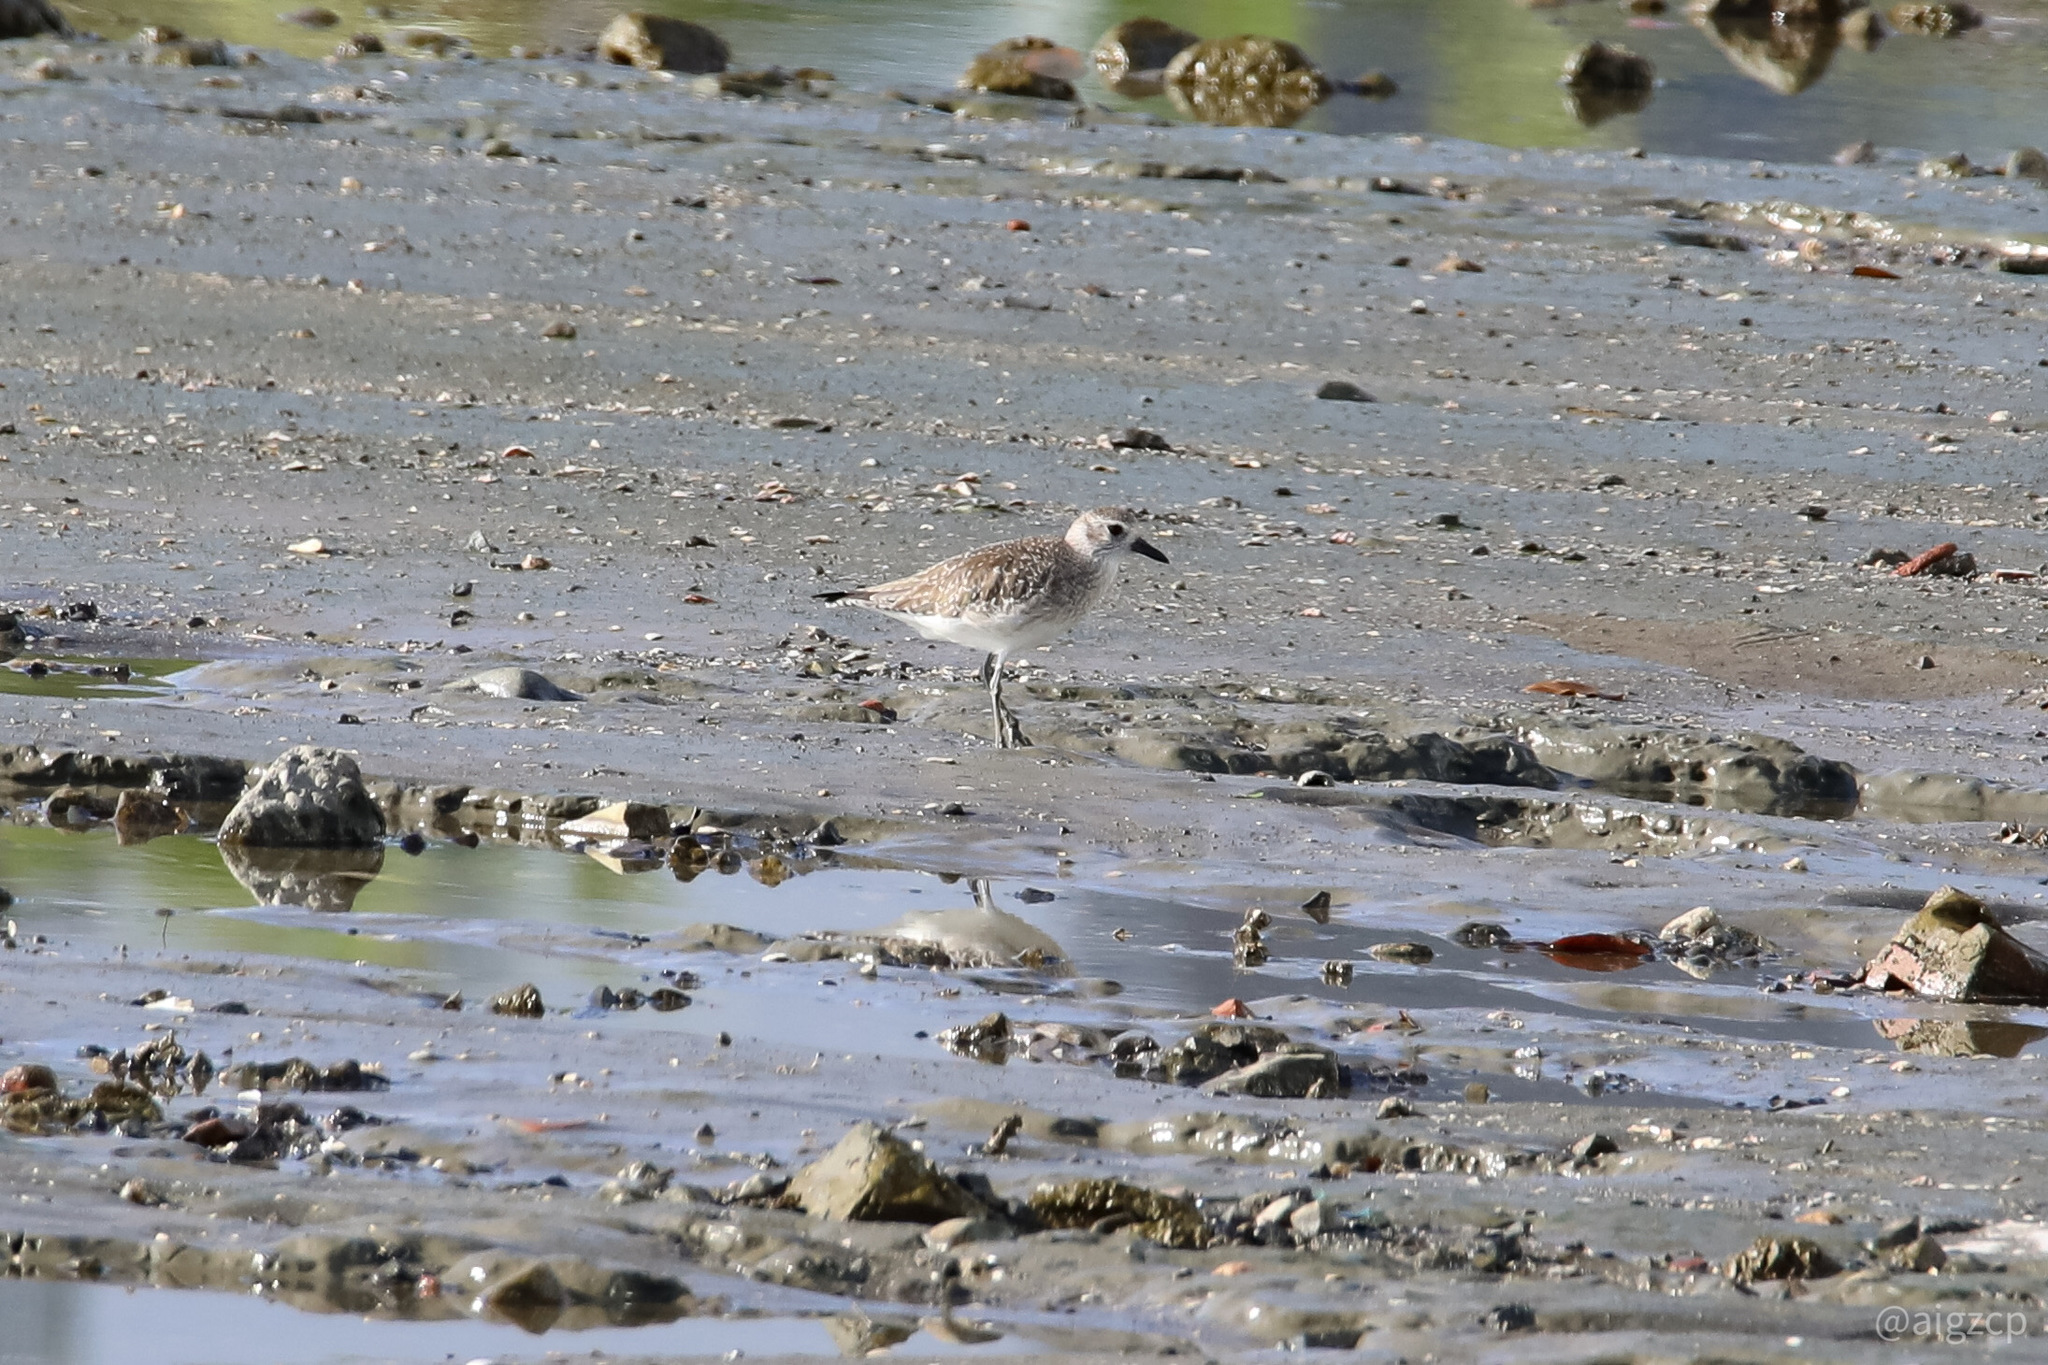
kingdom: Animalia
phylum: Chordata
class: Aves
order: Charadriiformes
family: Charadriidae
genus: Pluvialis
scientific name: Pluvialis squatarola
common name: Grey plover
